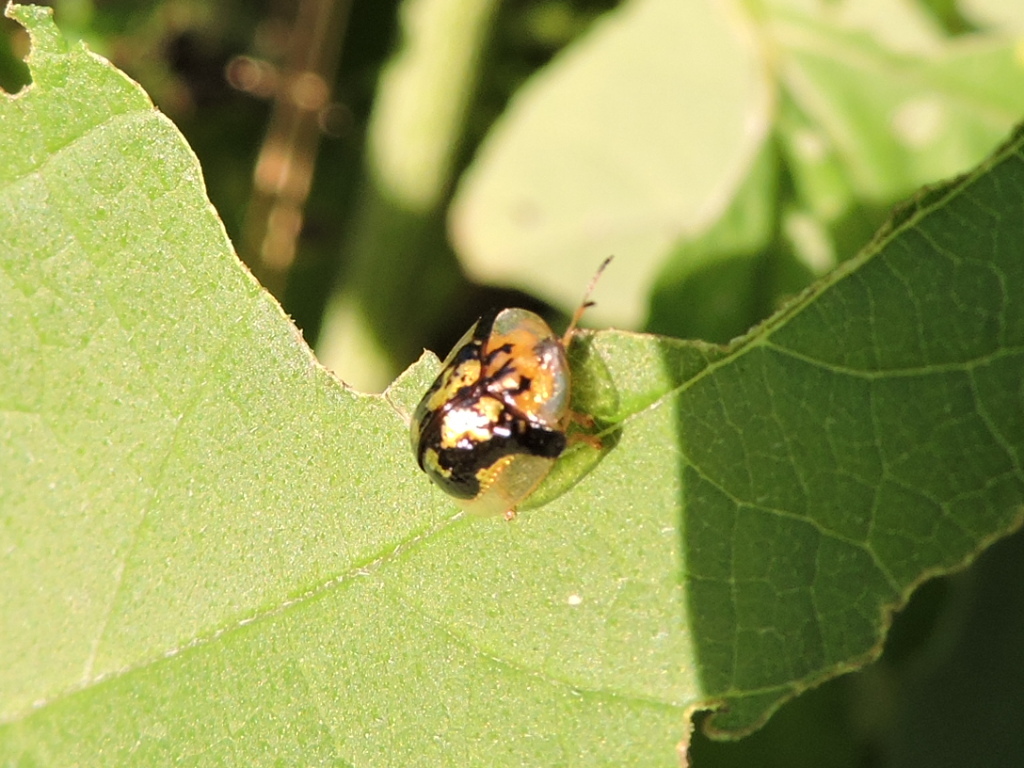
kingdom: Animalia
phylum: Arthropoda
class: Insecta
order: Coleoptera
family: Chrysomelidae
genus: Deloyala
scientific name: Deloyala guttata
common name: Mottled tortoise beetle
